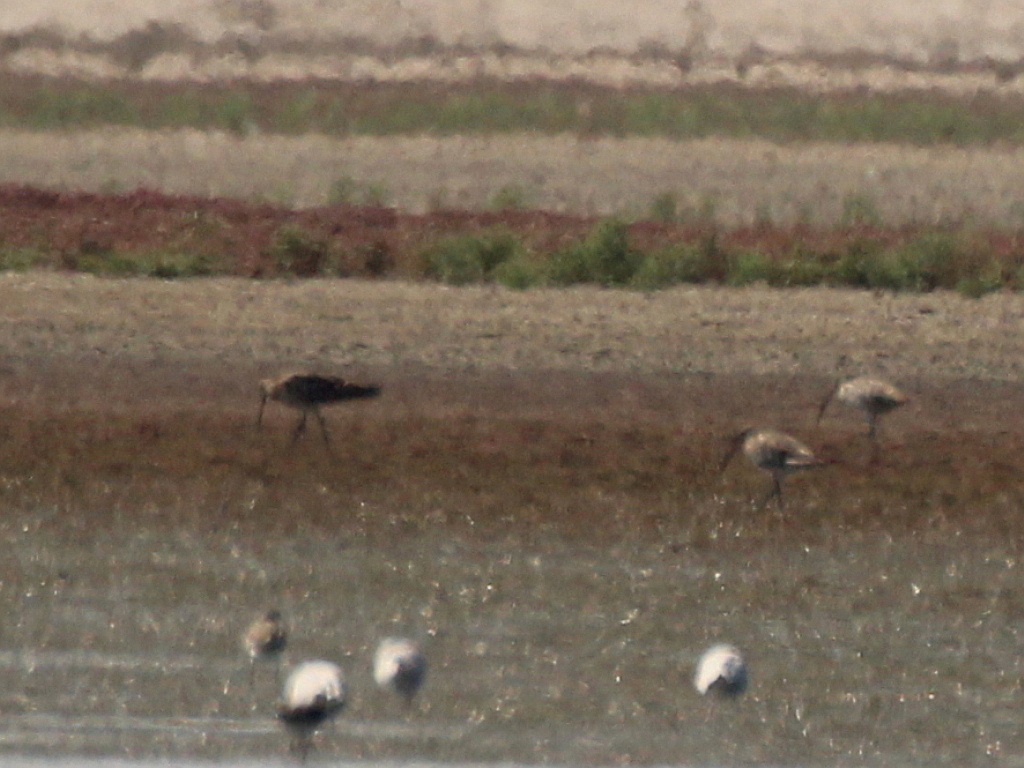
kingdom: Animalia
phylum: Chordata
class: Aves
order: Charadriiformes
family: Scolopacidae
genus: Numenius
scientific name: Numenius arquata
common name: Eurasian curlew
